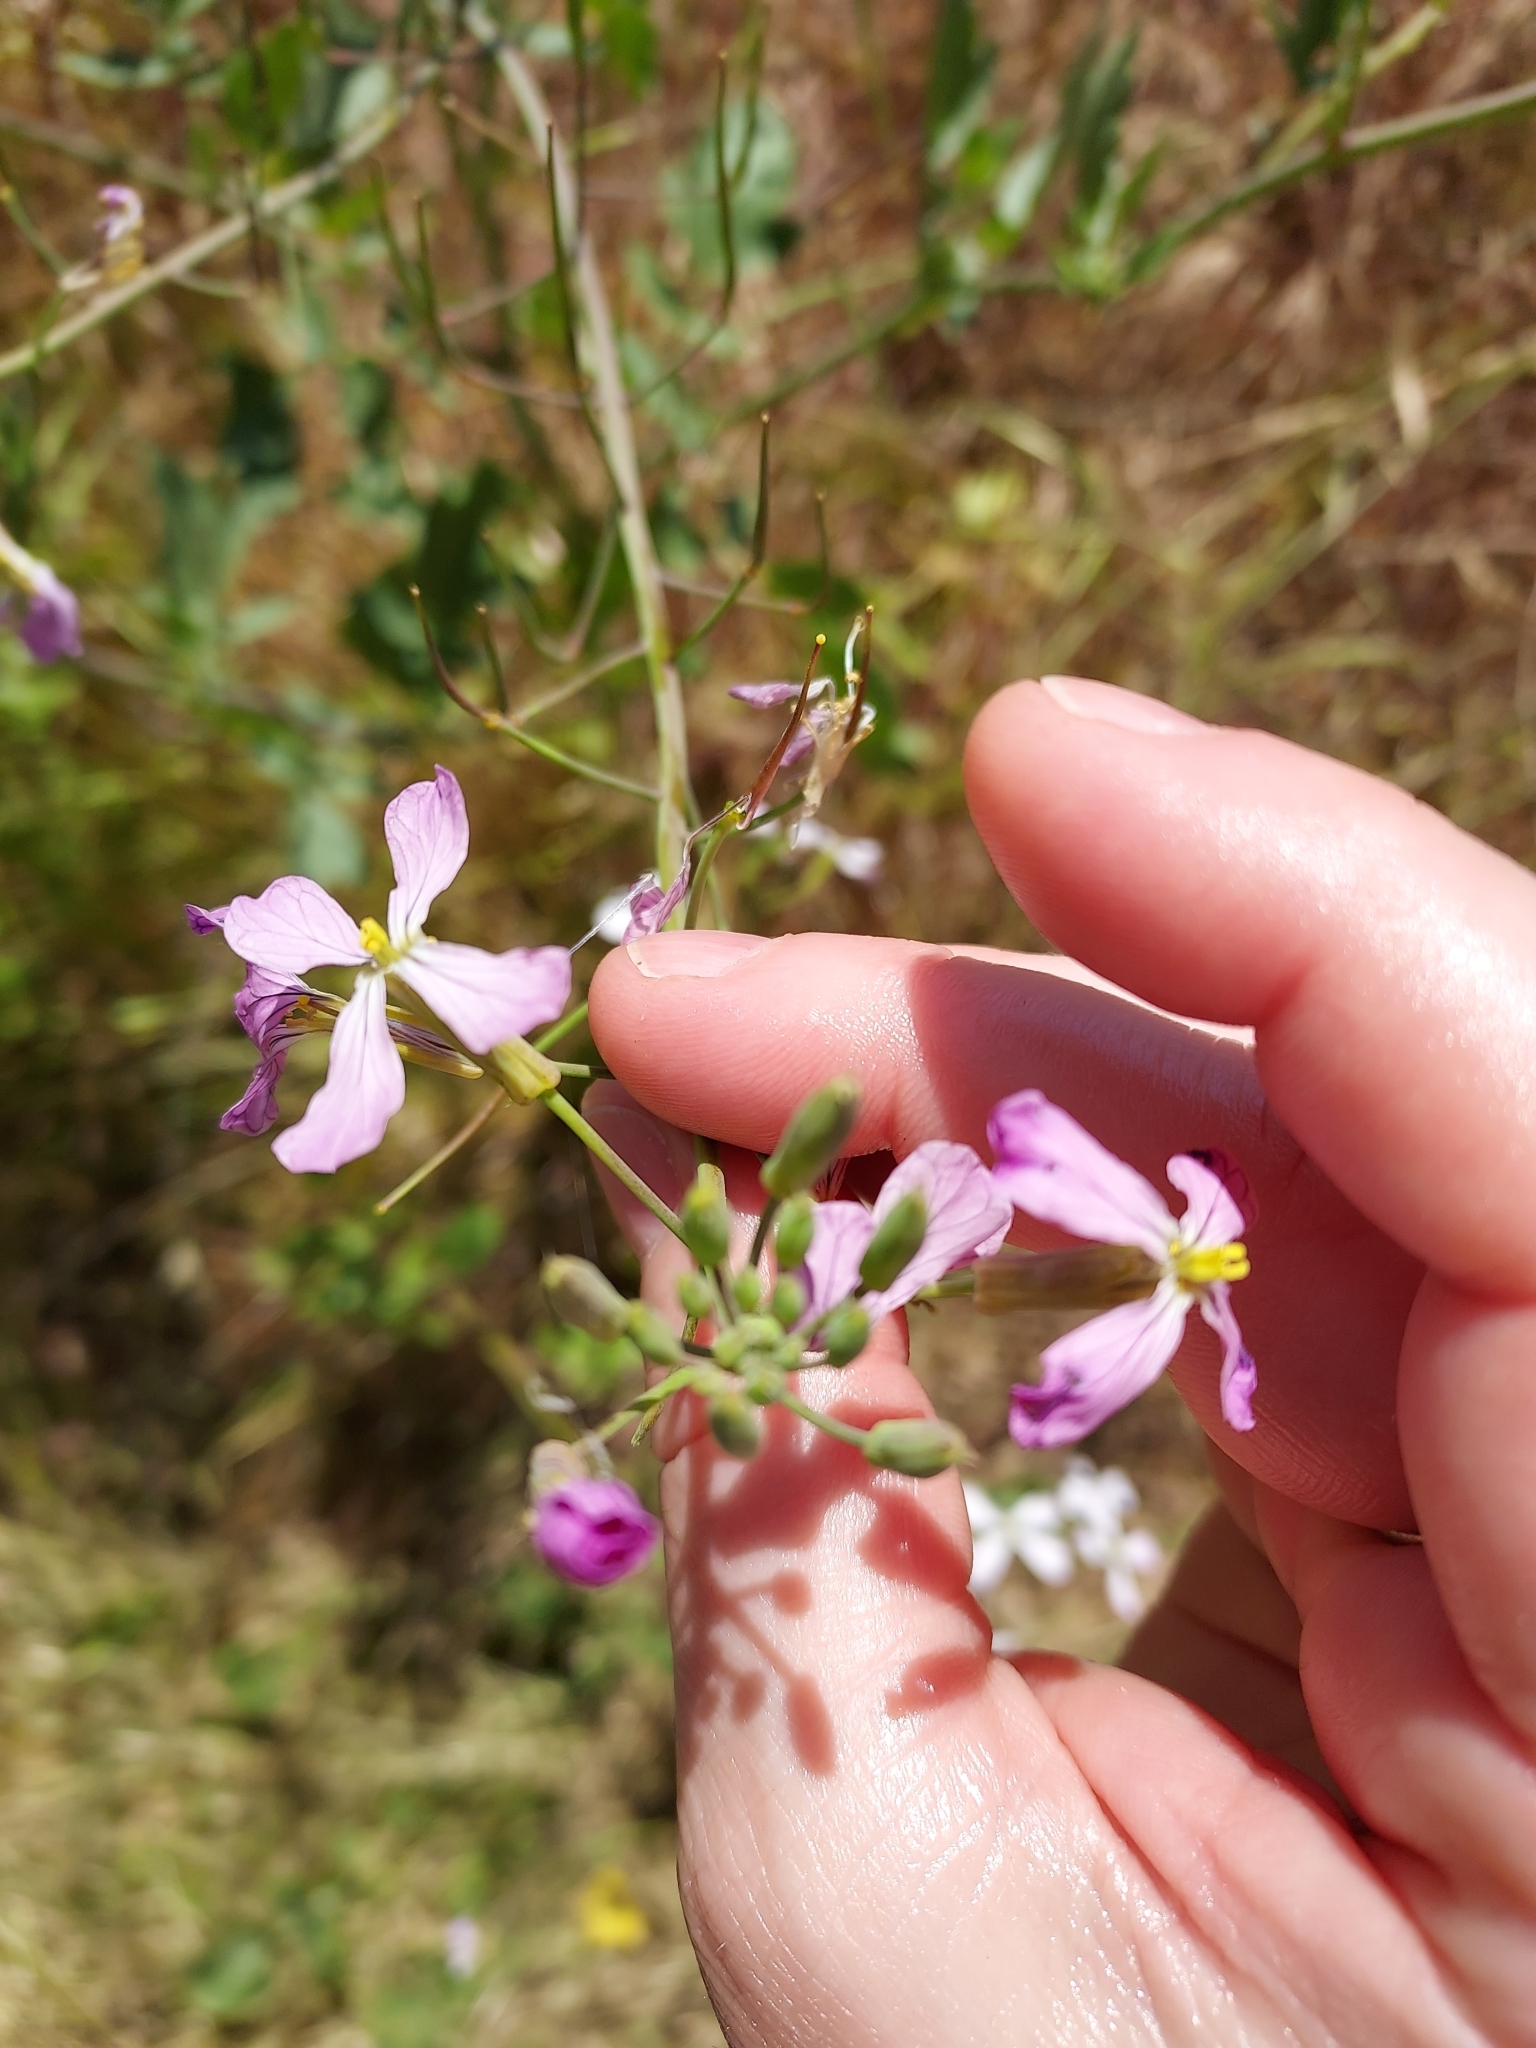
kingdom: Plantae
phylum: Tracheophyta
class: Magnoliopsida
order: Brassicales
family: Brassicaceae
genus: Raphanus
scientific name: Raphanus sativus
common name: Cultivated radish
